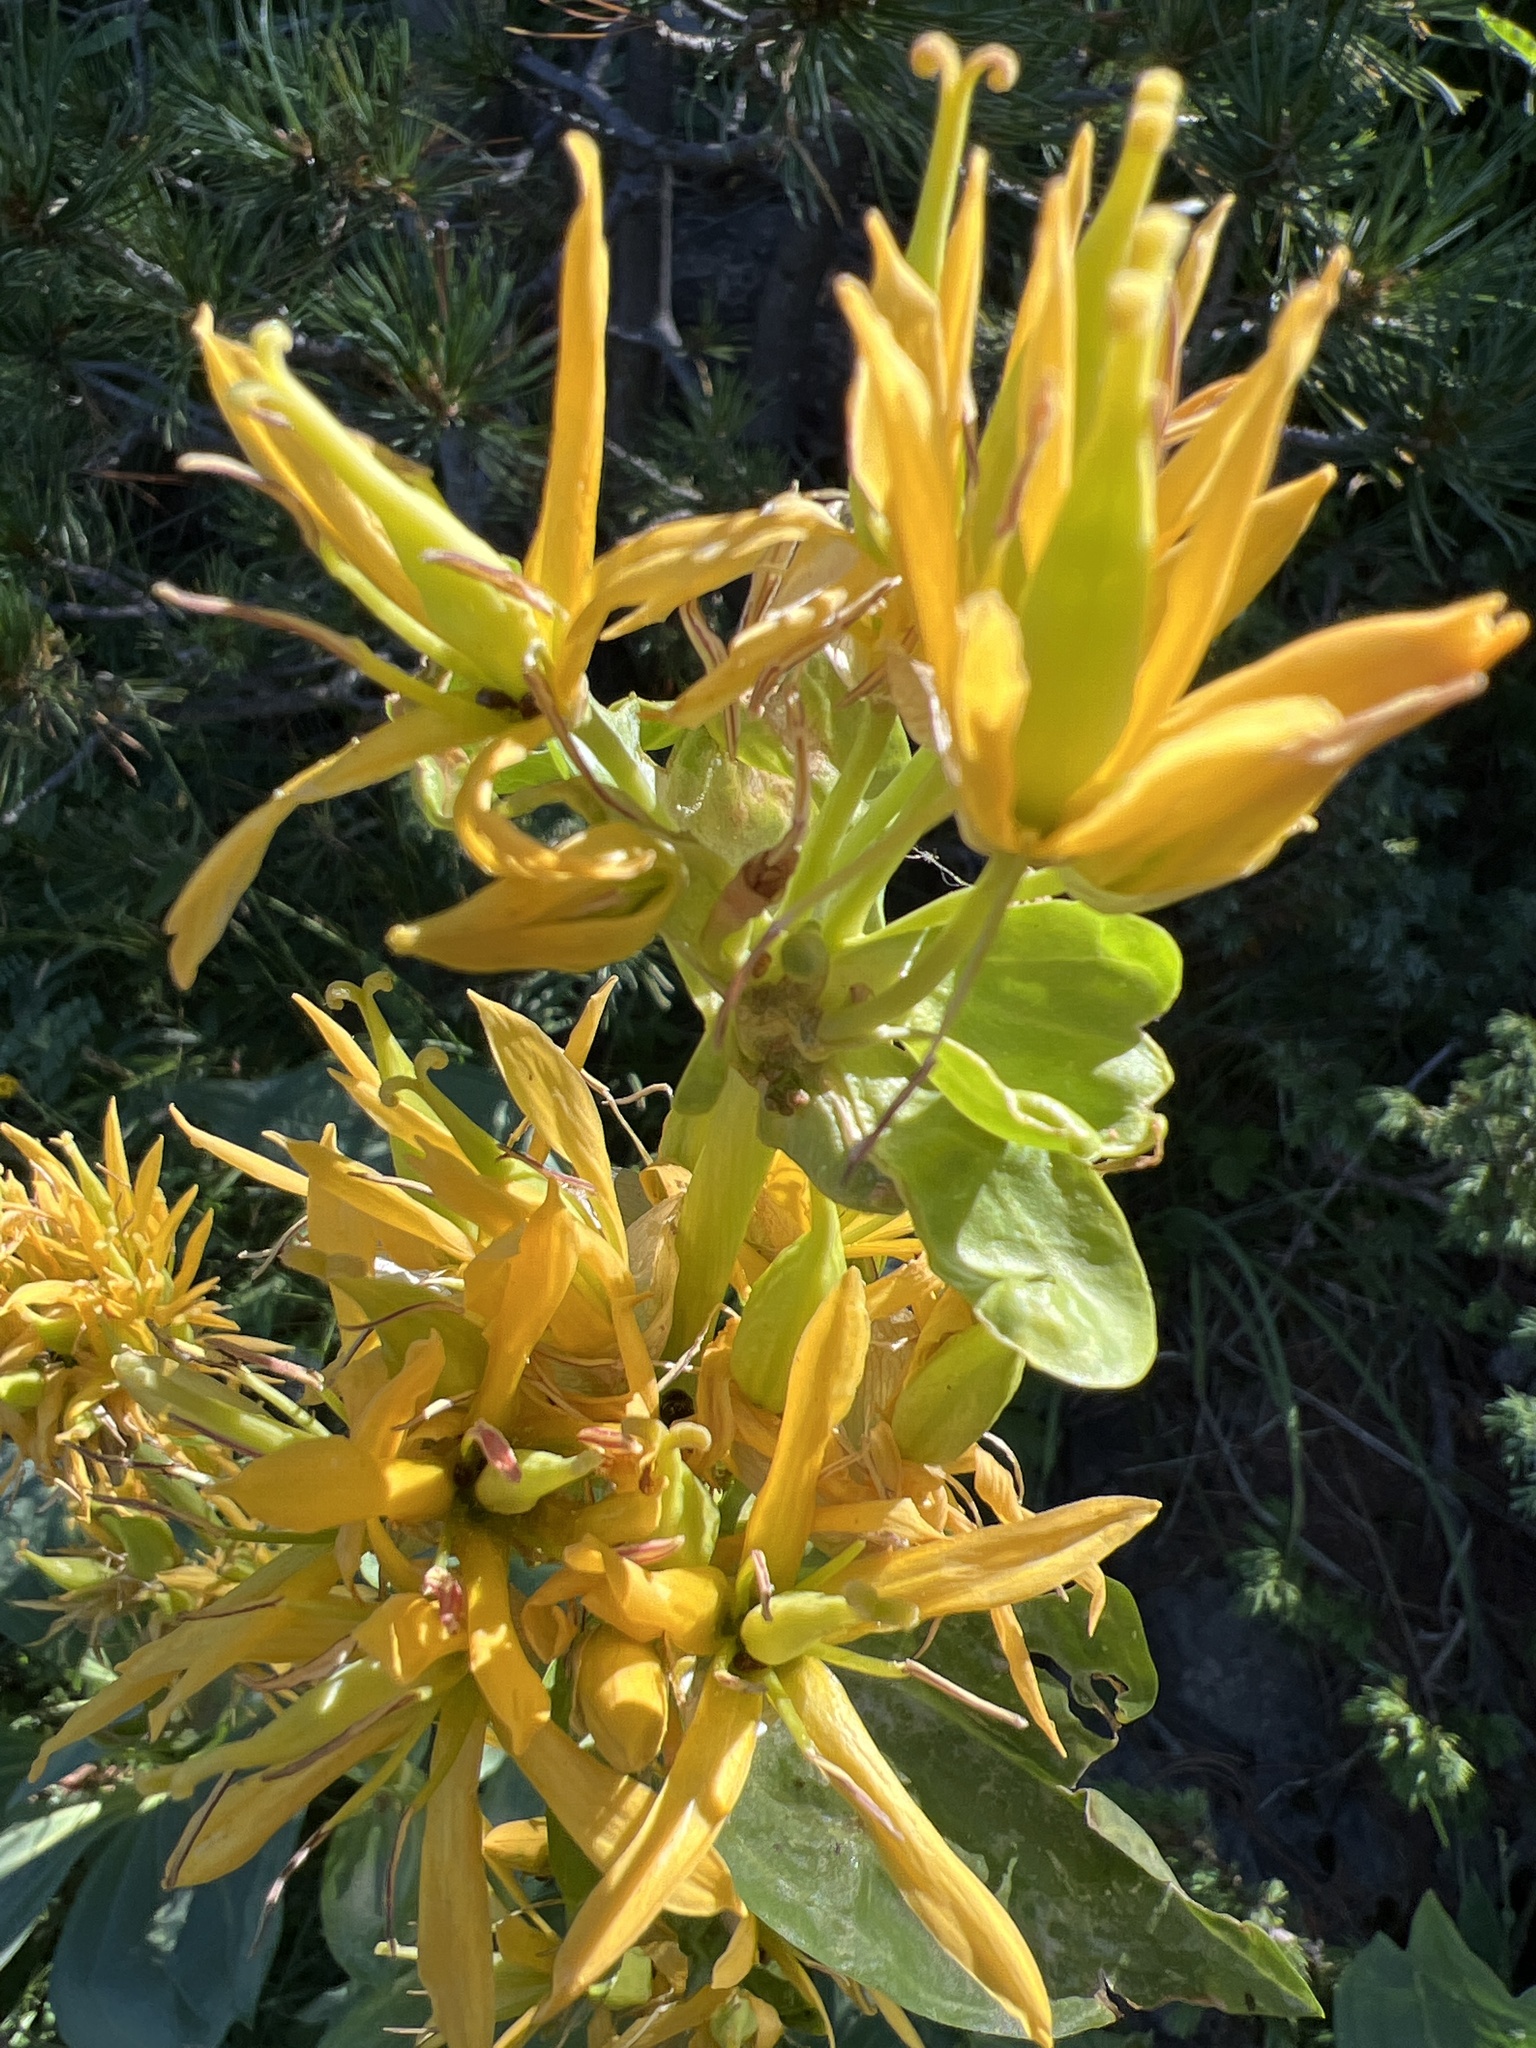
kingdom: Plantae
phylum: Tracheophyta
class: Magnoliopsida
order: Gentianales
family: Gentianaceae
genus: Gentiana
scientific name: Gentiana lutea
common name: Great yellow gentian
